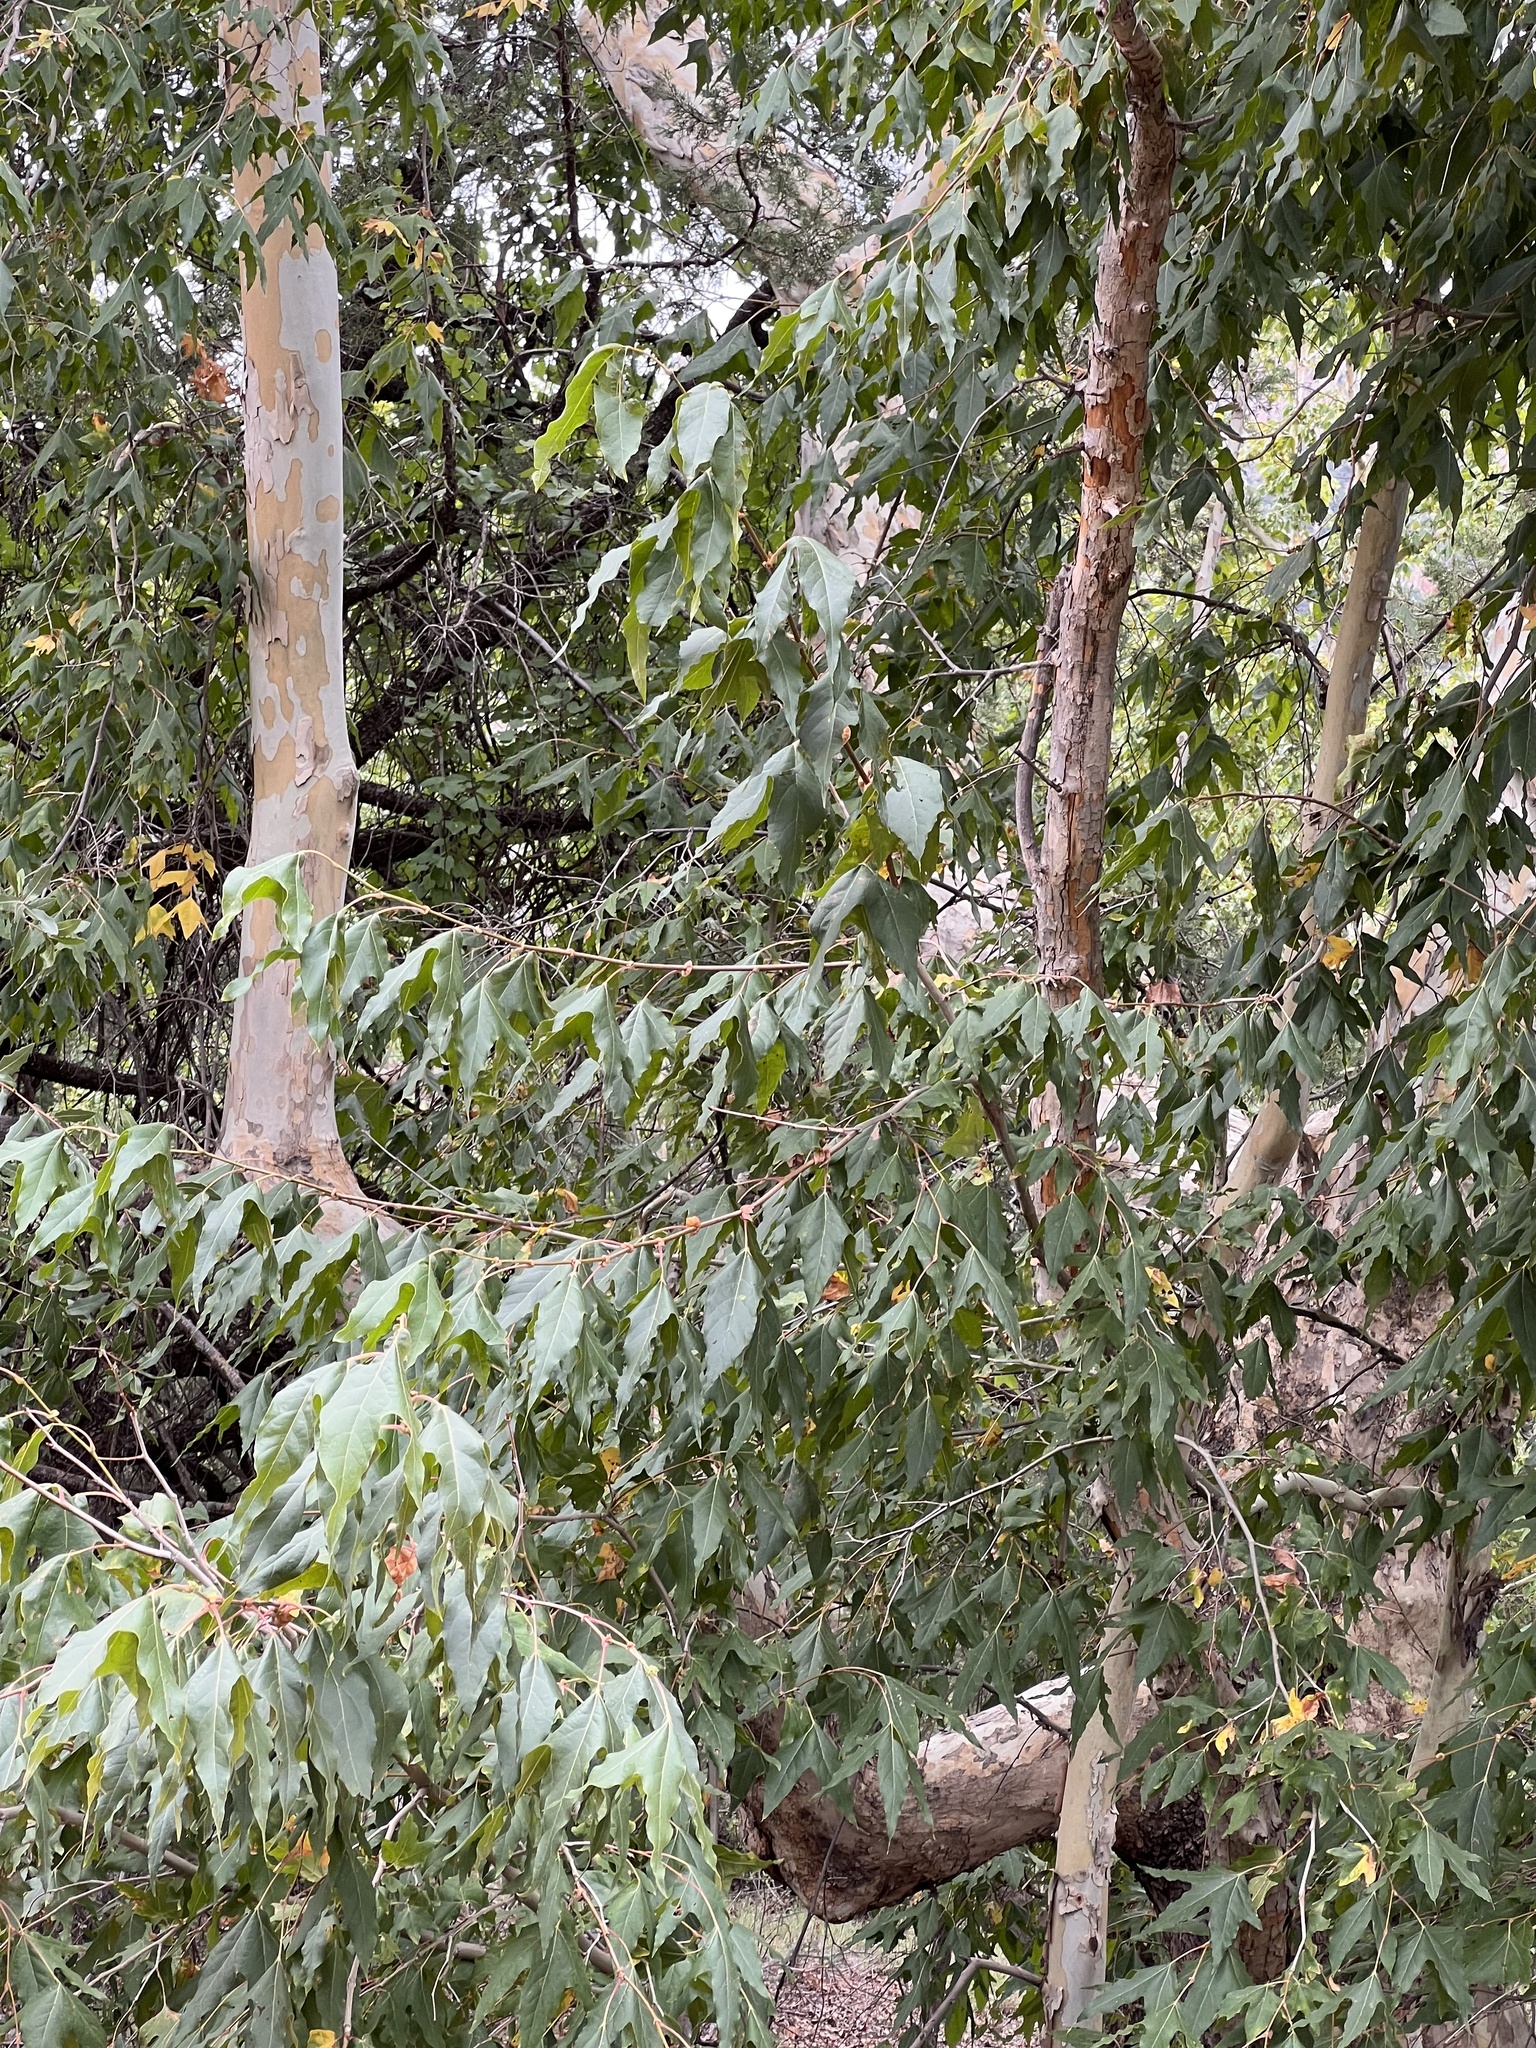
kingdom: Plantae
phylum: Tracheophyta
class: Magnoliopsida
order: Proteales
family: Platanaceae
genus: Platanus
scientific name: Platanus wrightii
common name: Arizona sycamore
